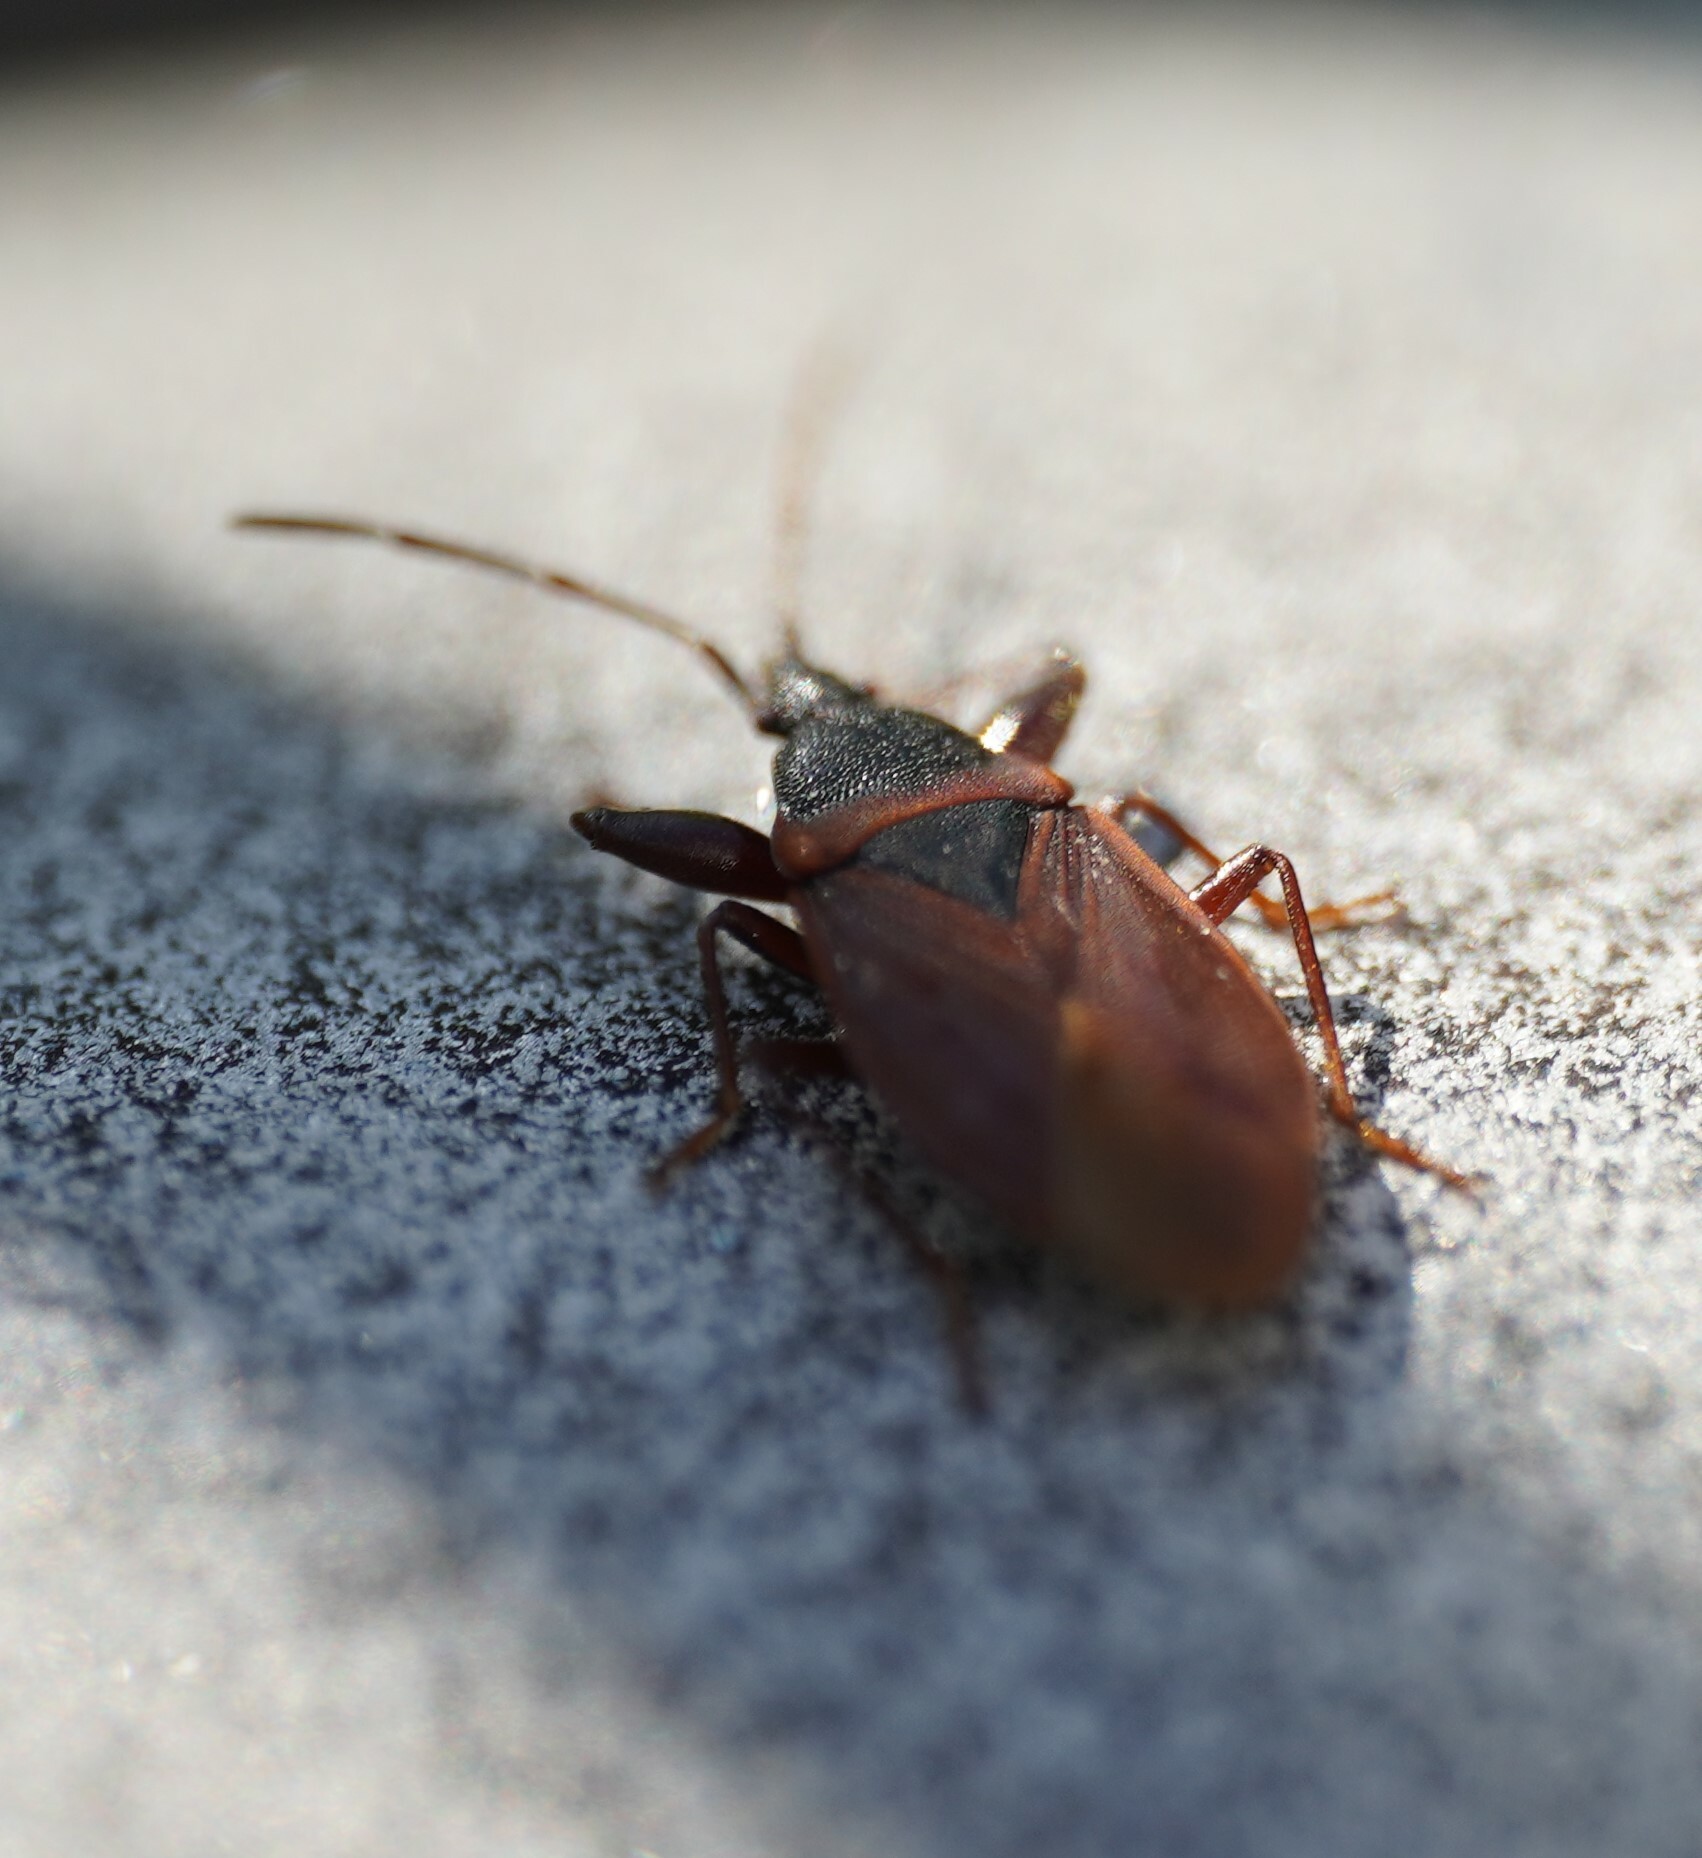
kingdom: Animalia
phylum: Arthropoda
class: Insecta
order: Hemiptera
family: Rhyparochromidae
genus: Gastrodes
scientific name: Gastrodes grossipes
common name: Pine cone bug
